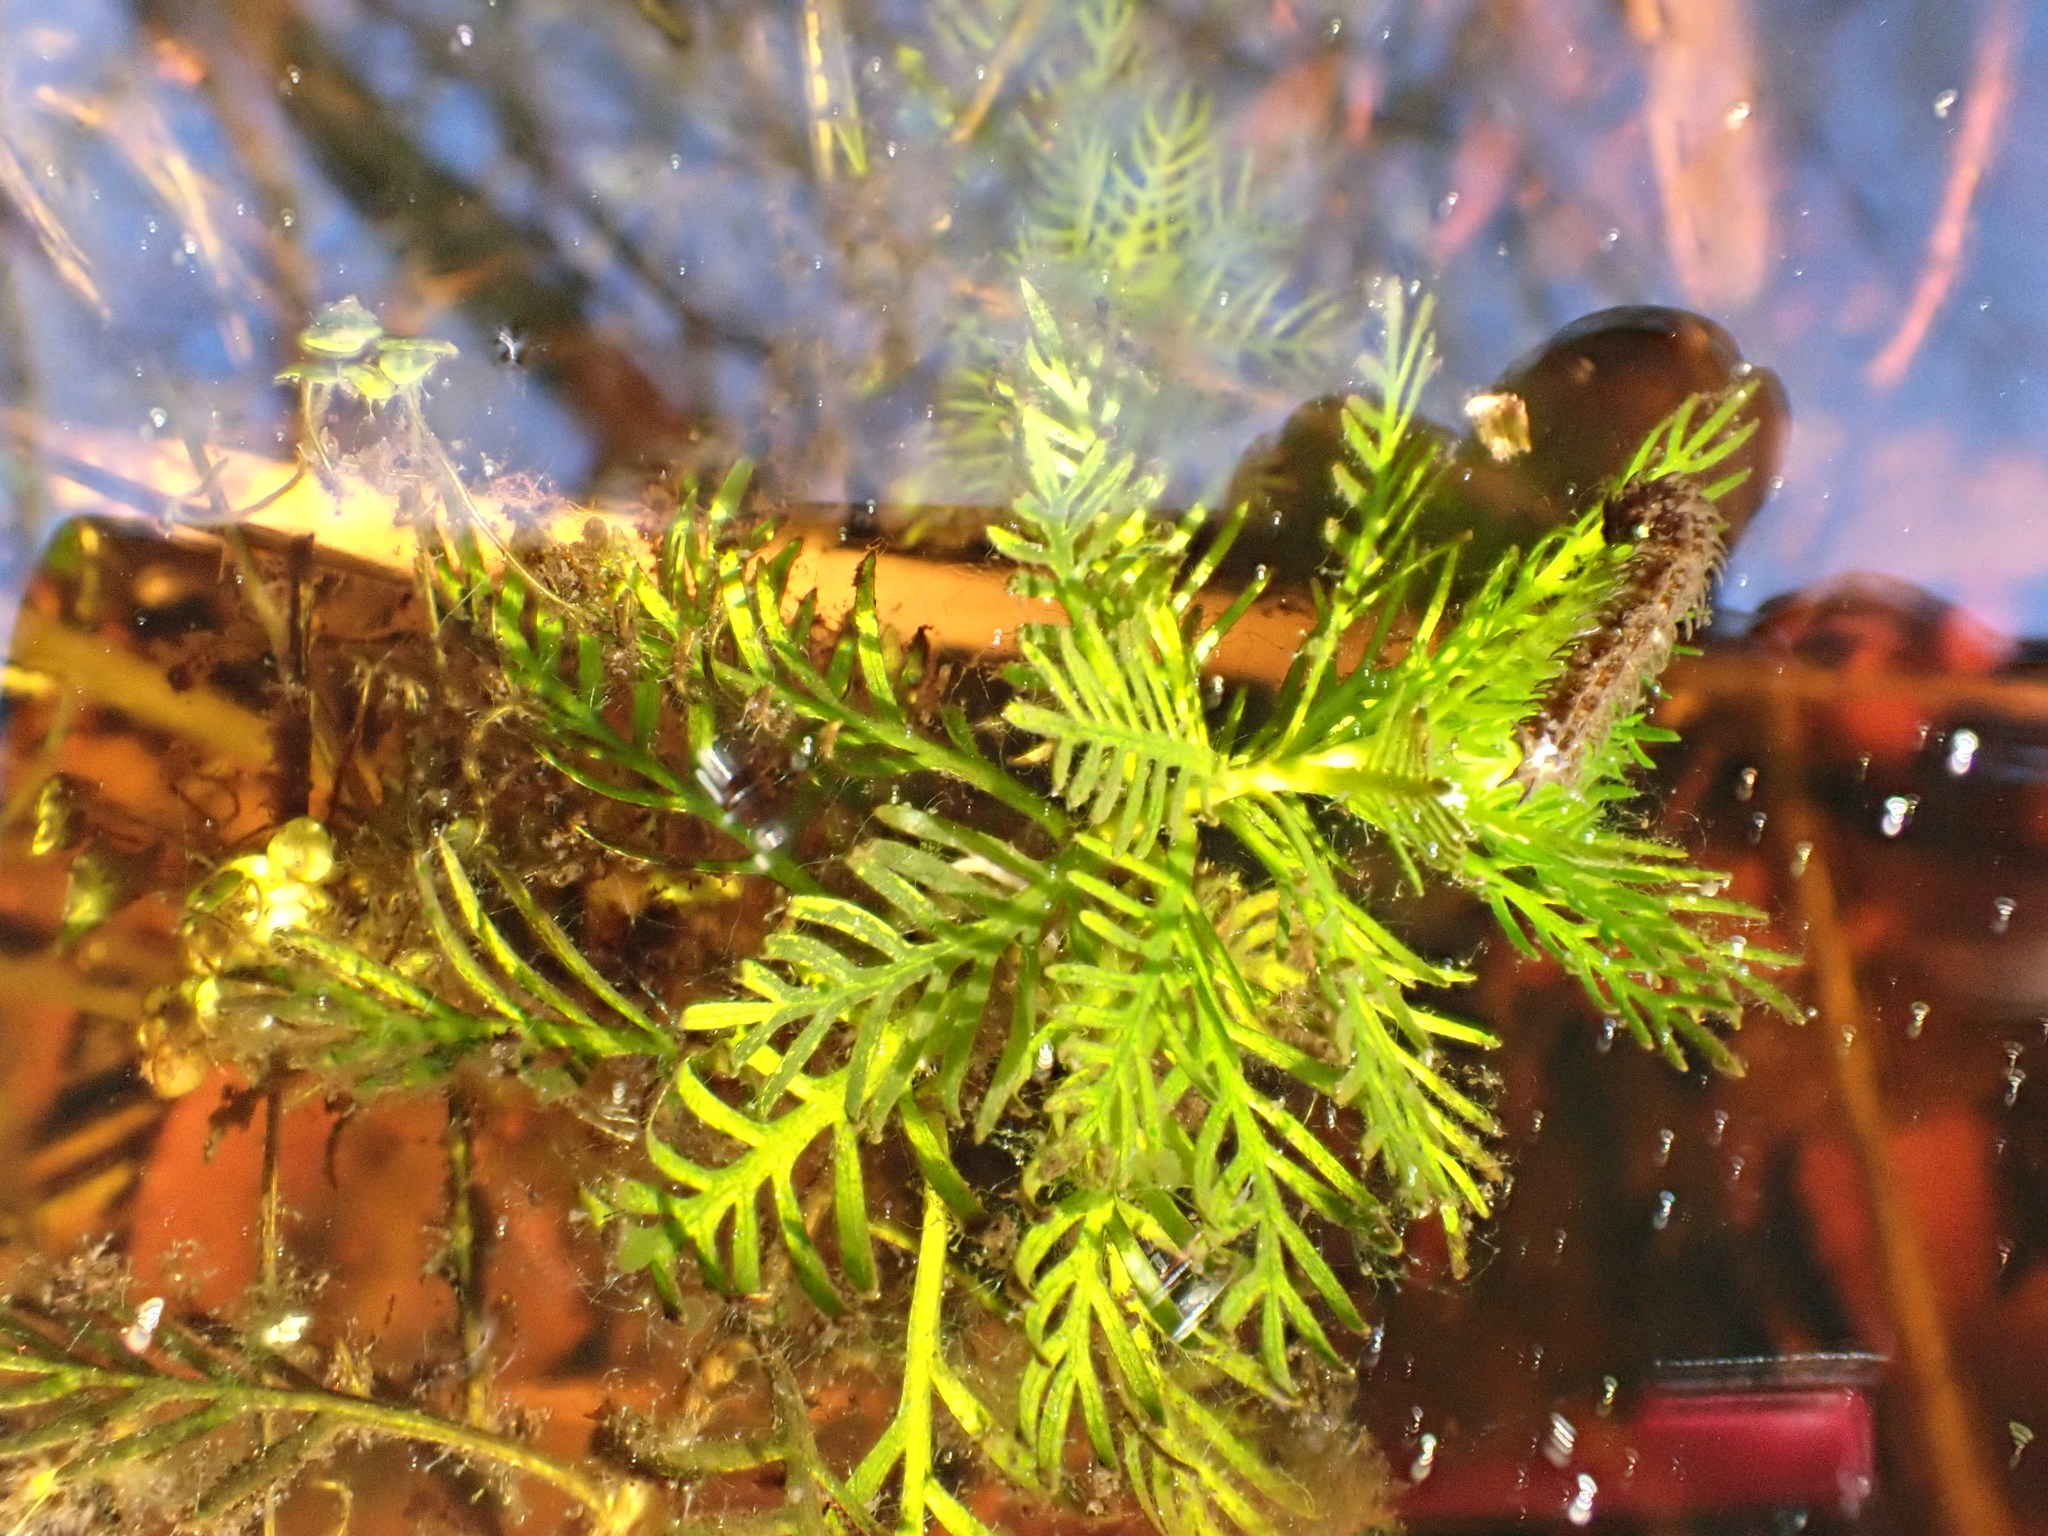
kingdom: Plantae
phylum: Tracheophyta
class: Magnoliopsida
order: Ericales
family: Primulaceae
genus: Hottonia
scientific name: Hottonia palustris
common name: Water-violet
